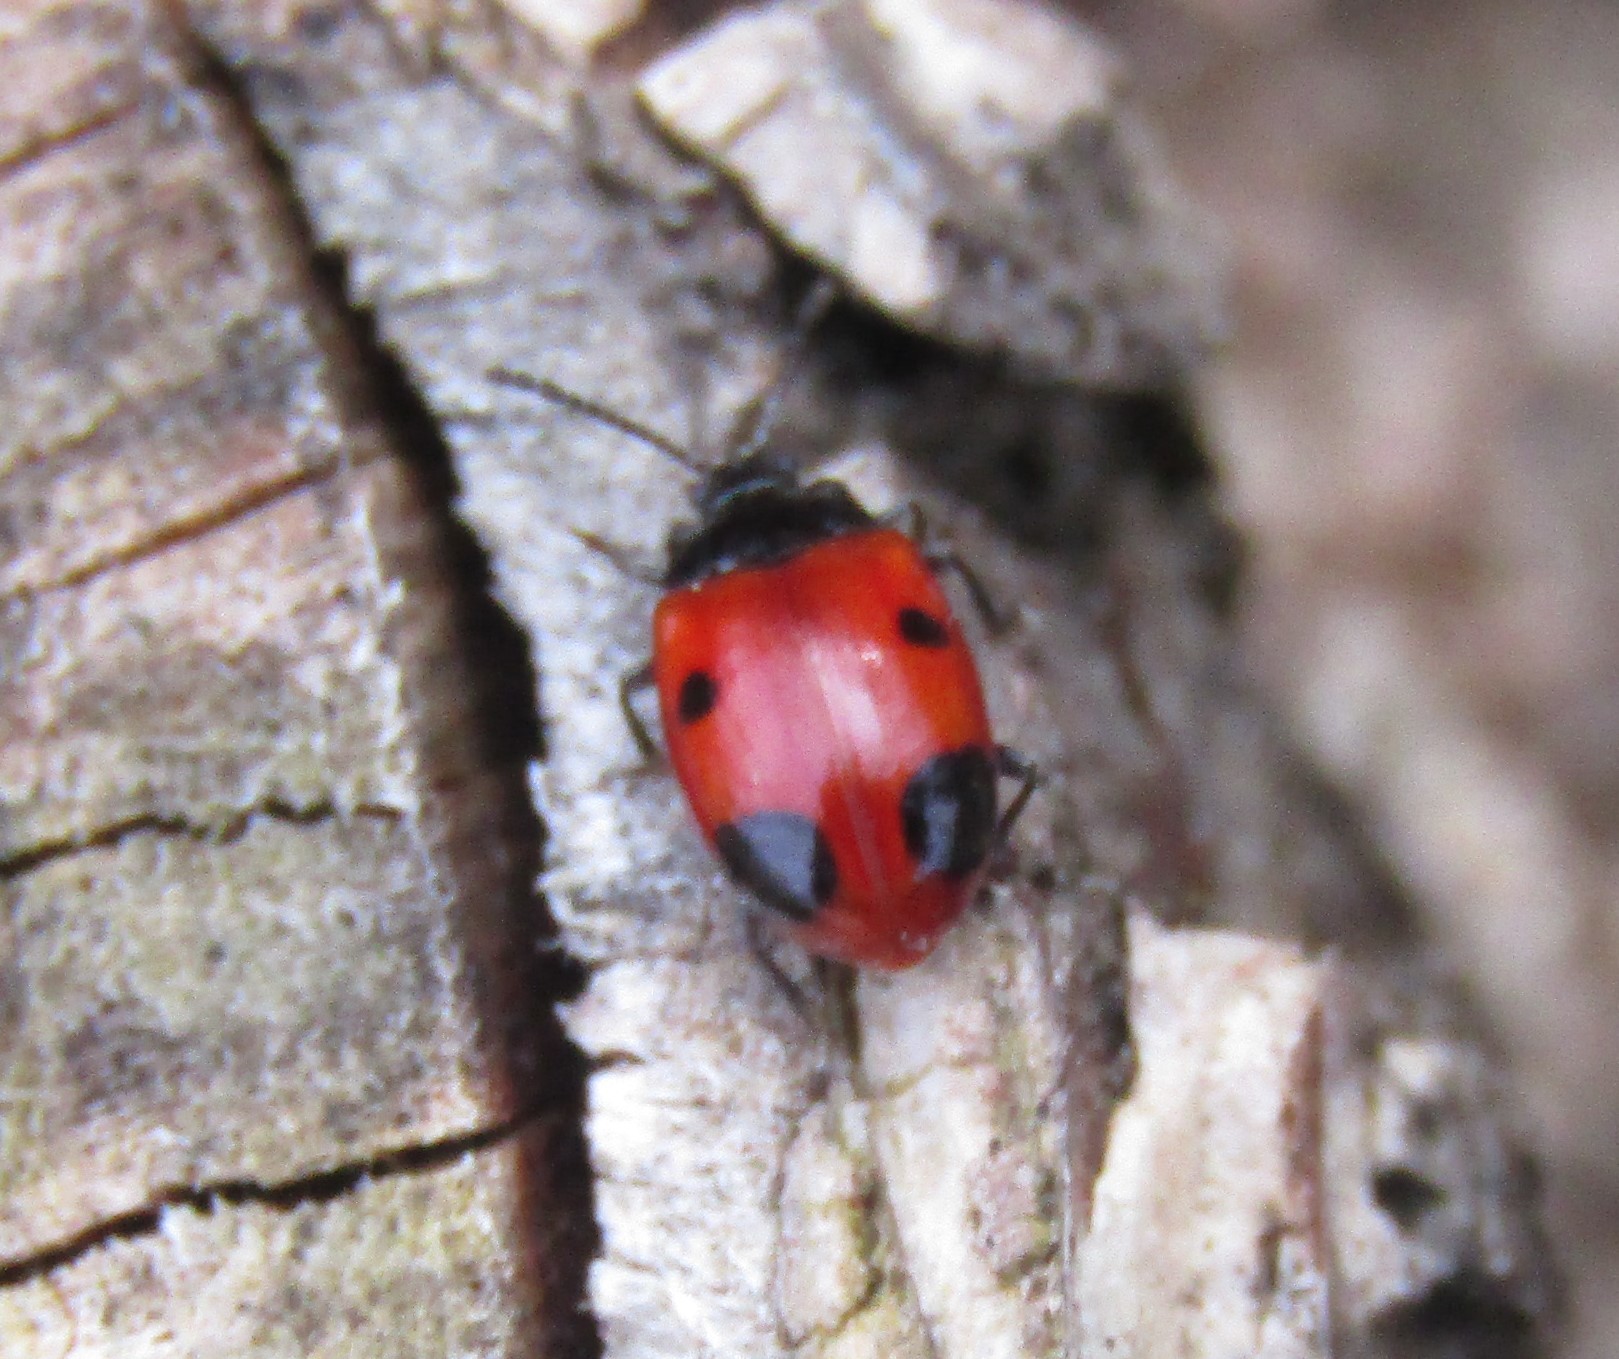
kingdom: Animalia
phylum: Arthropoda
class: Insecta
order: Coleoptera
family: Endomychidae
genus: Endomychus
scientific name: Endomychus biguttatus
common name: Handsome fungus beetle
